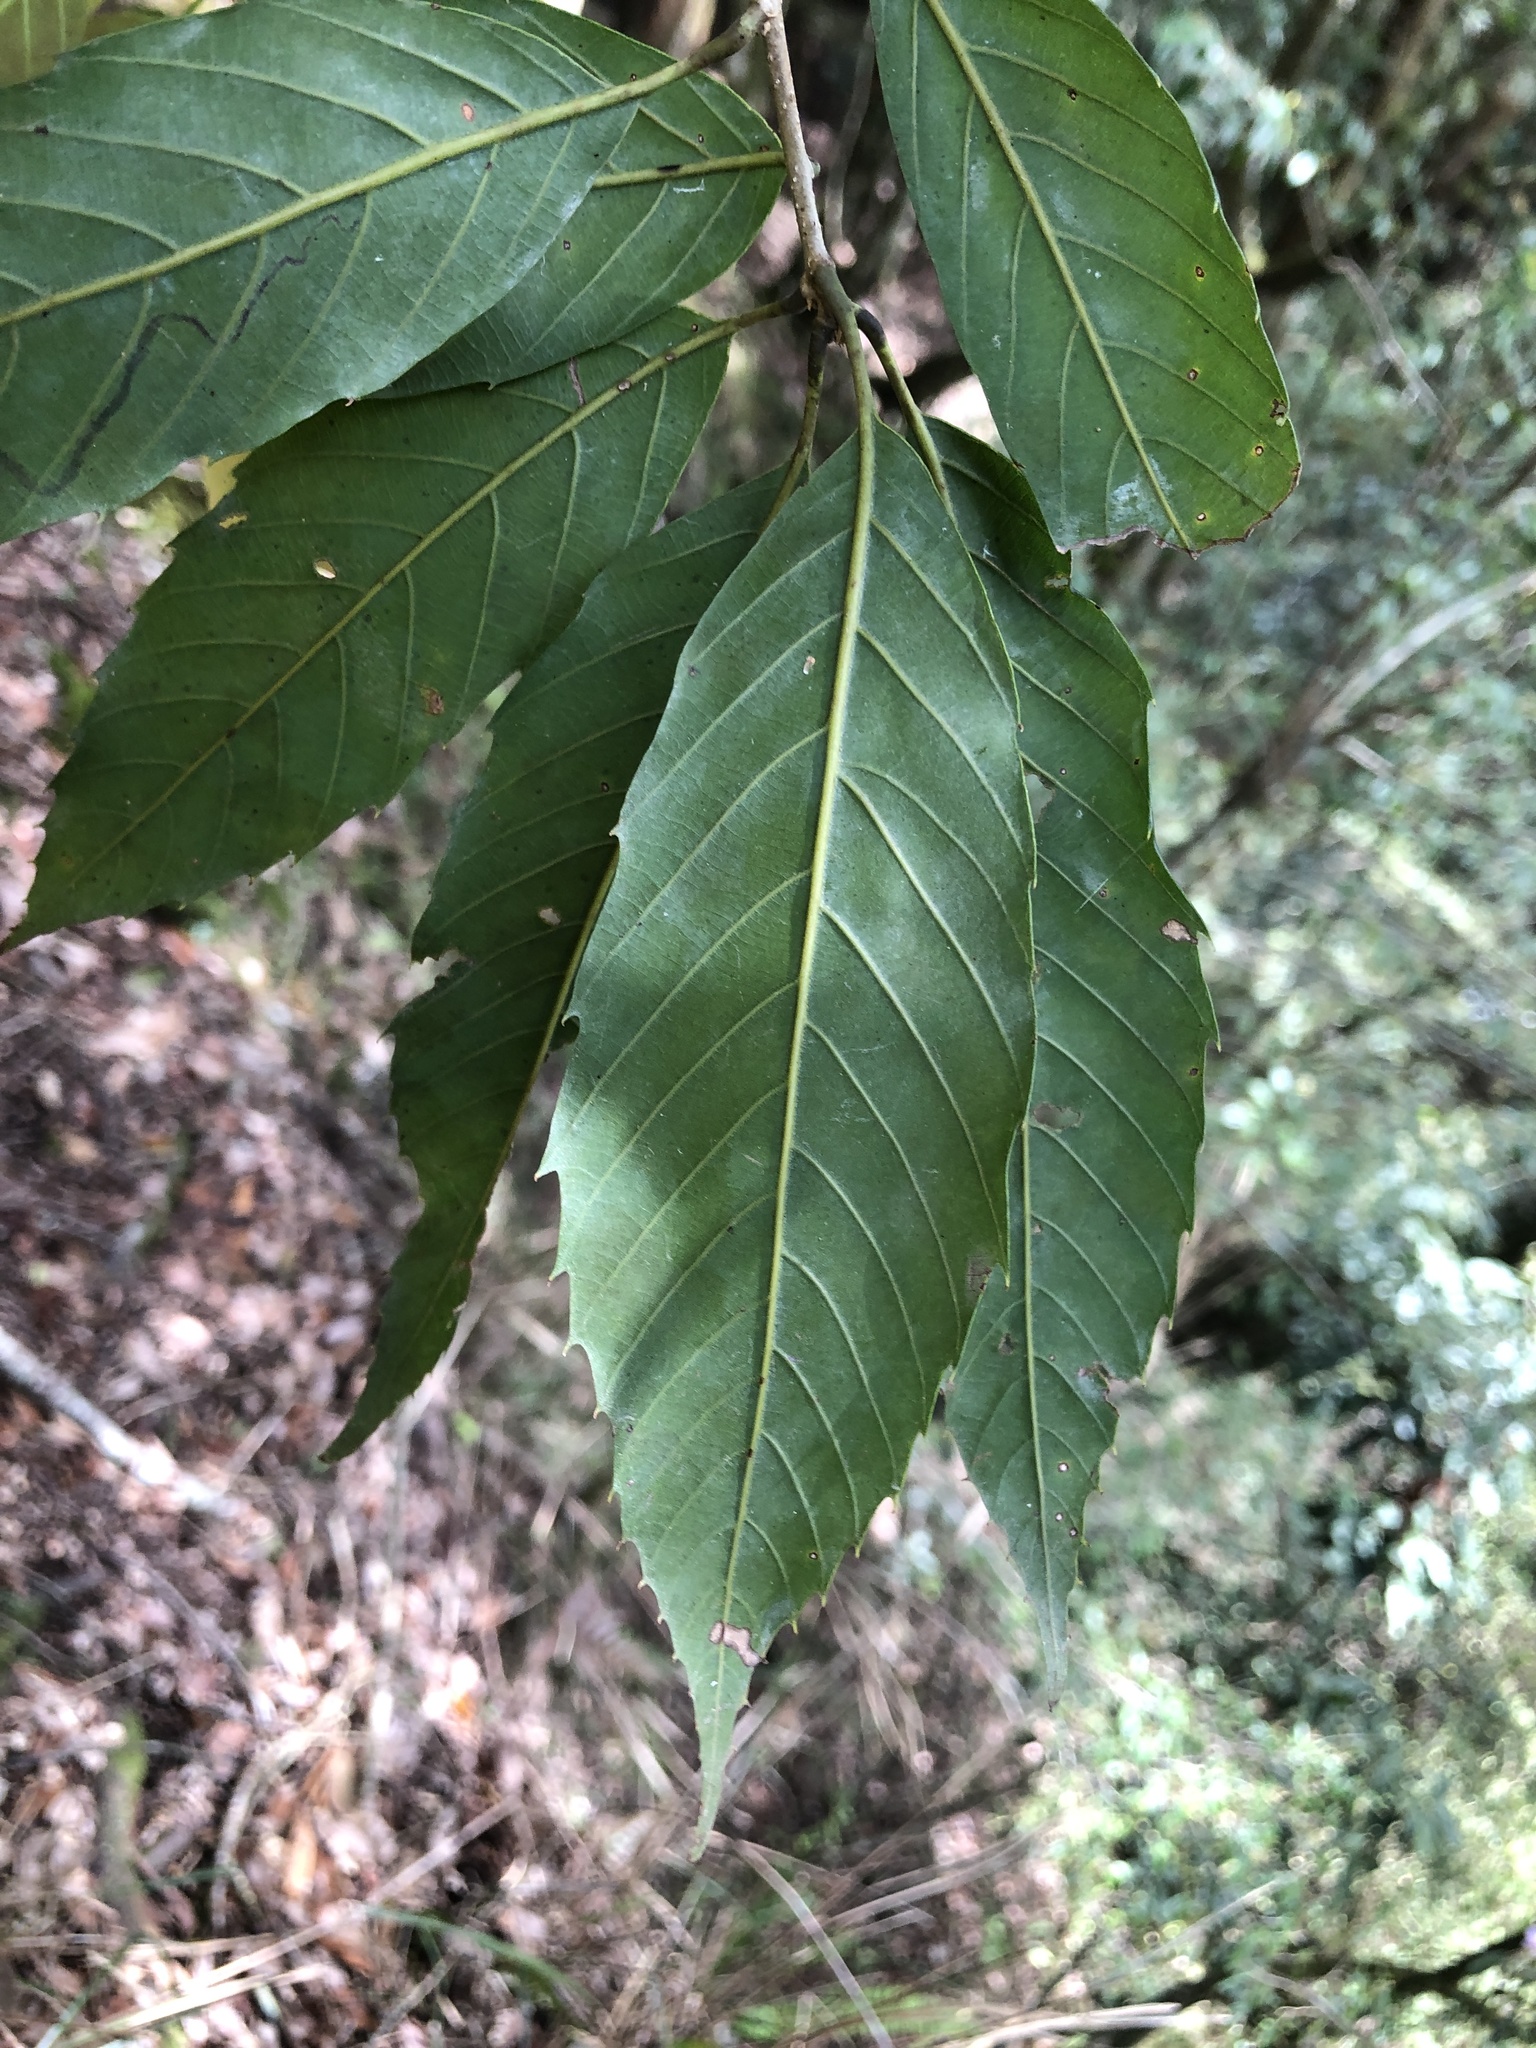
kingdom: Plantae
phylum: Tracheophyta
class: Magnoliopsida
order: Fagales
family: Fagaceae
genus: Quercus
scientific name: Quercus stenophylloides
